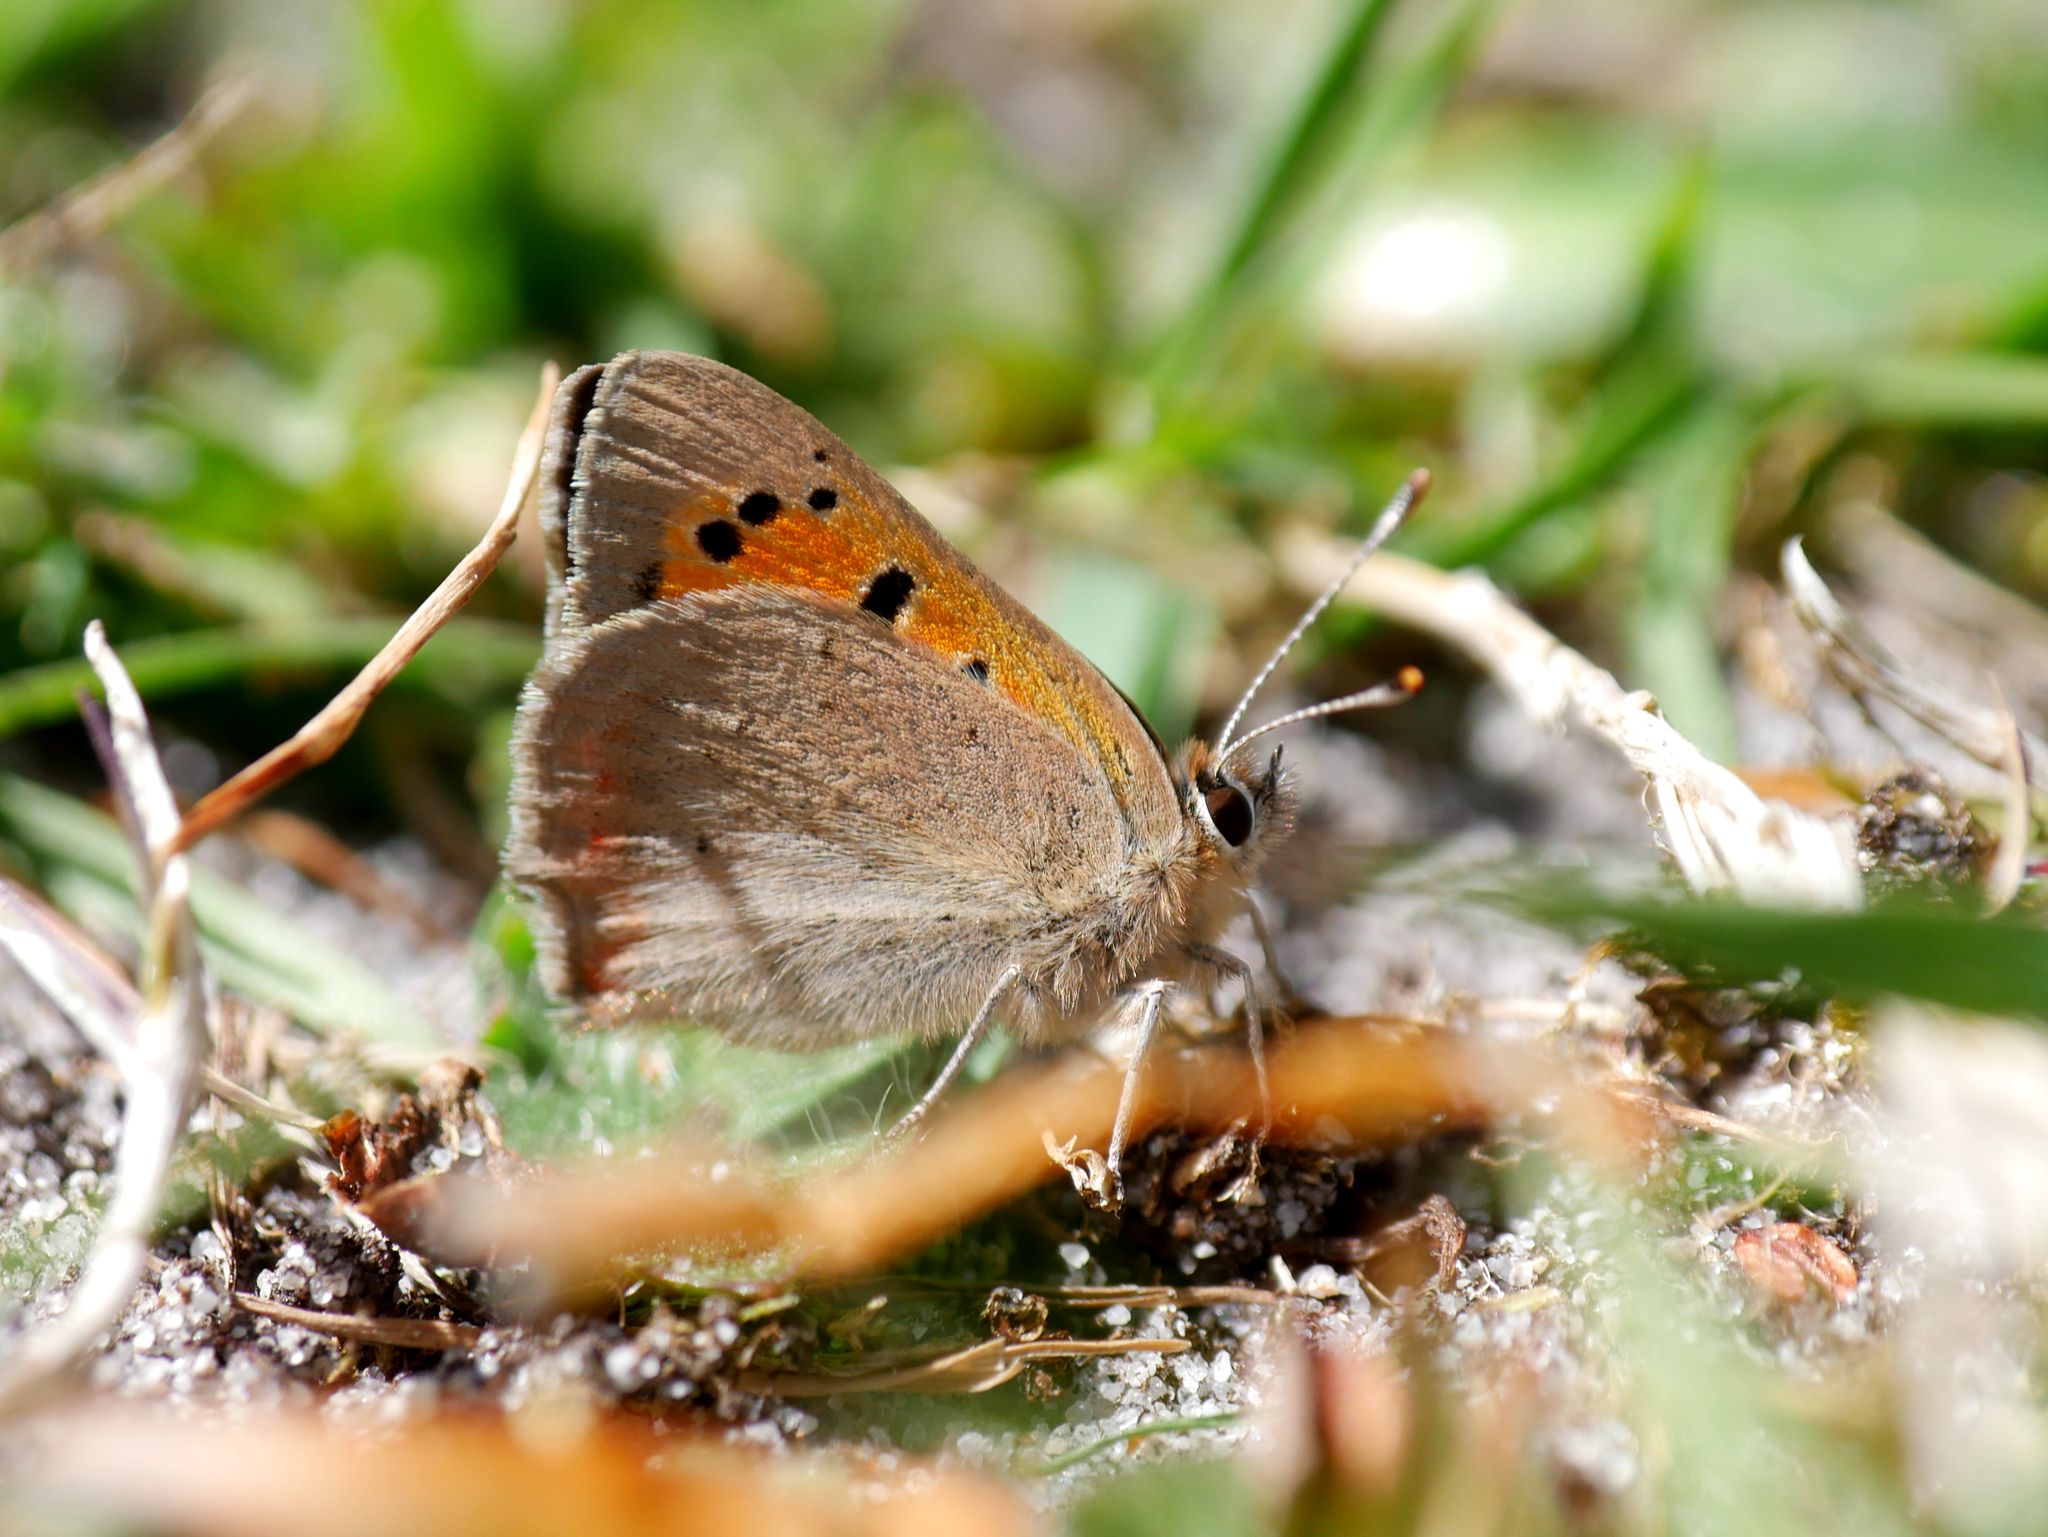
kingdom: Animalia
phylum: Arthropoda
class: Insecta
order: Lepidoptera
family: Lycaenidae
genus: Lycaena
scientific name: Lycaena phlaeas
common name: Small copper
